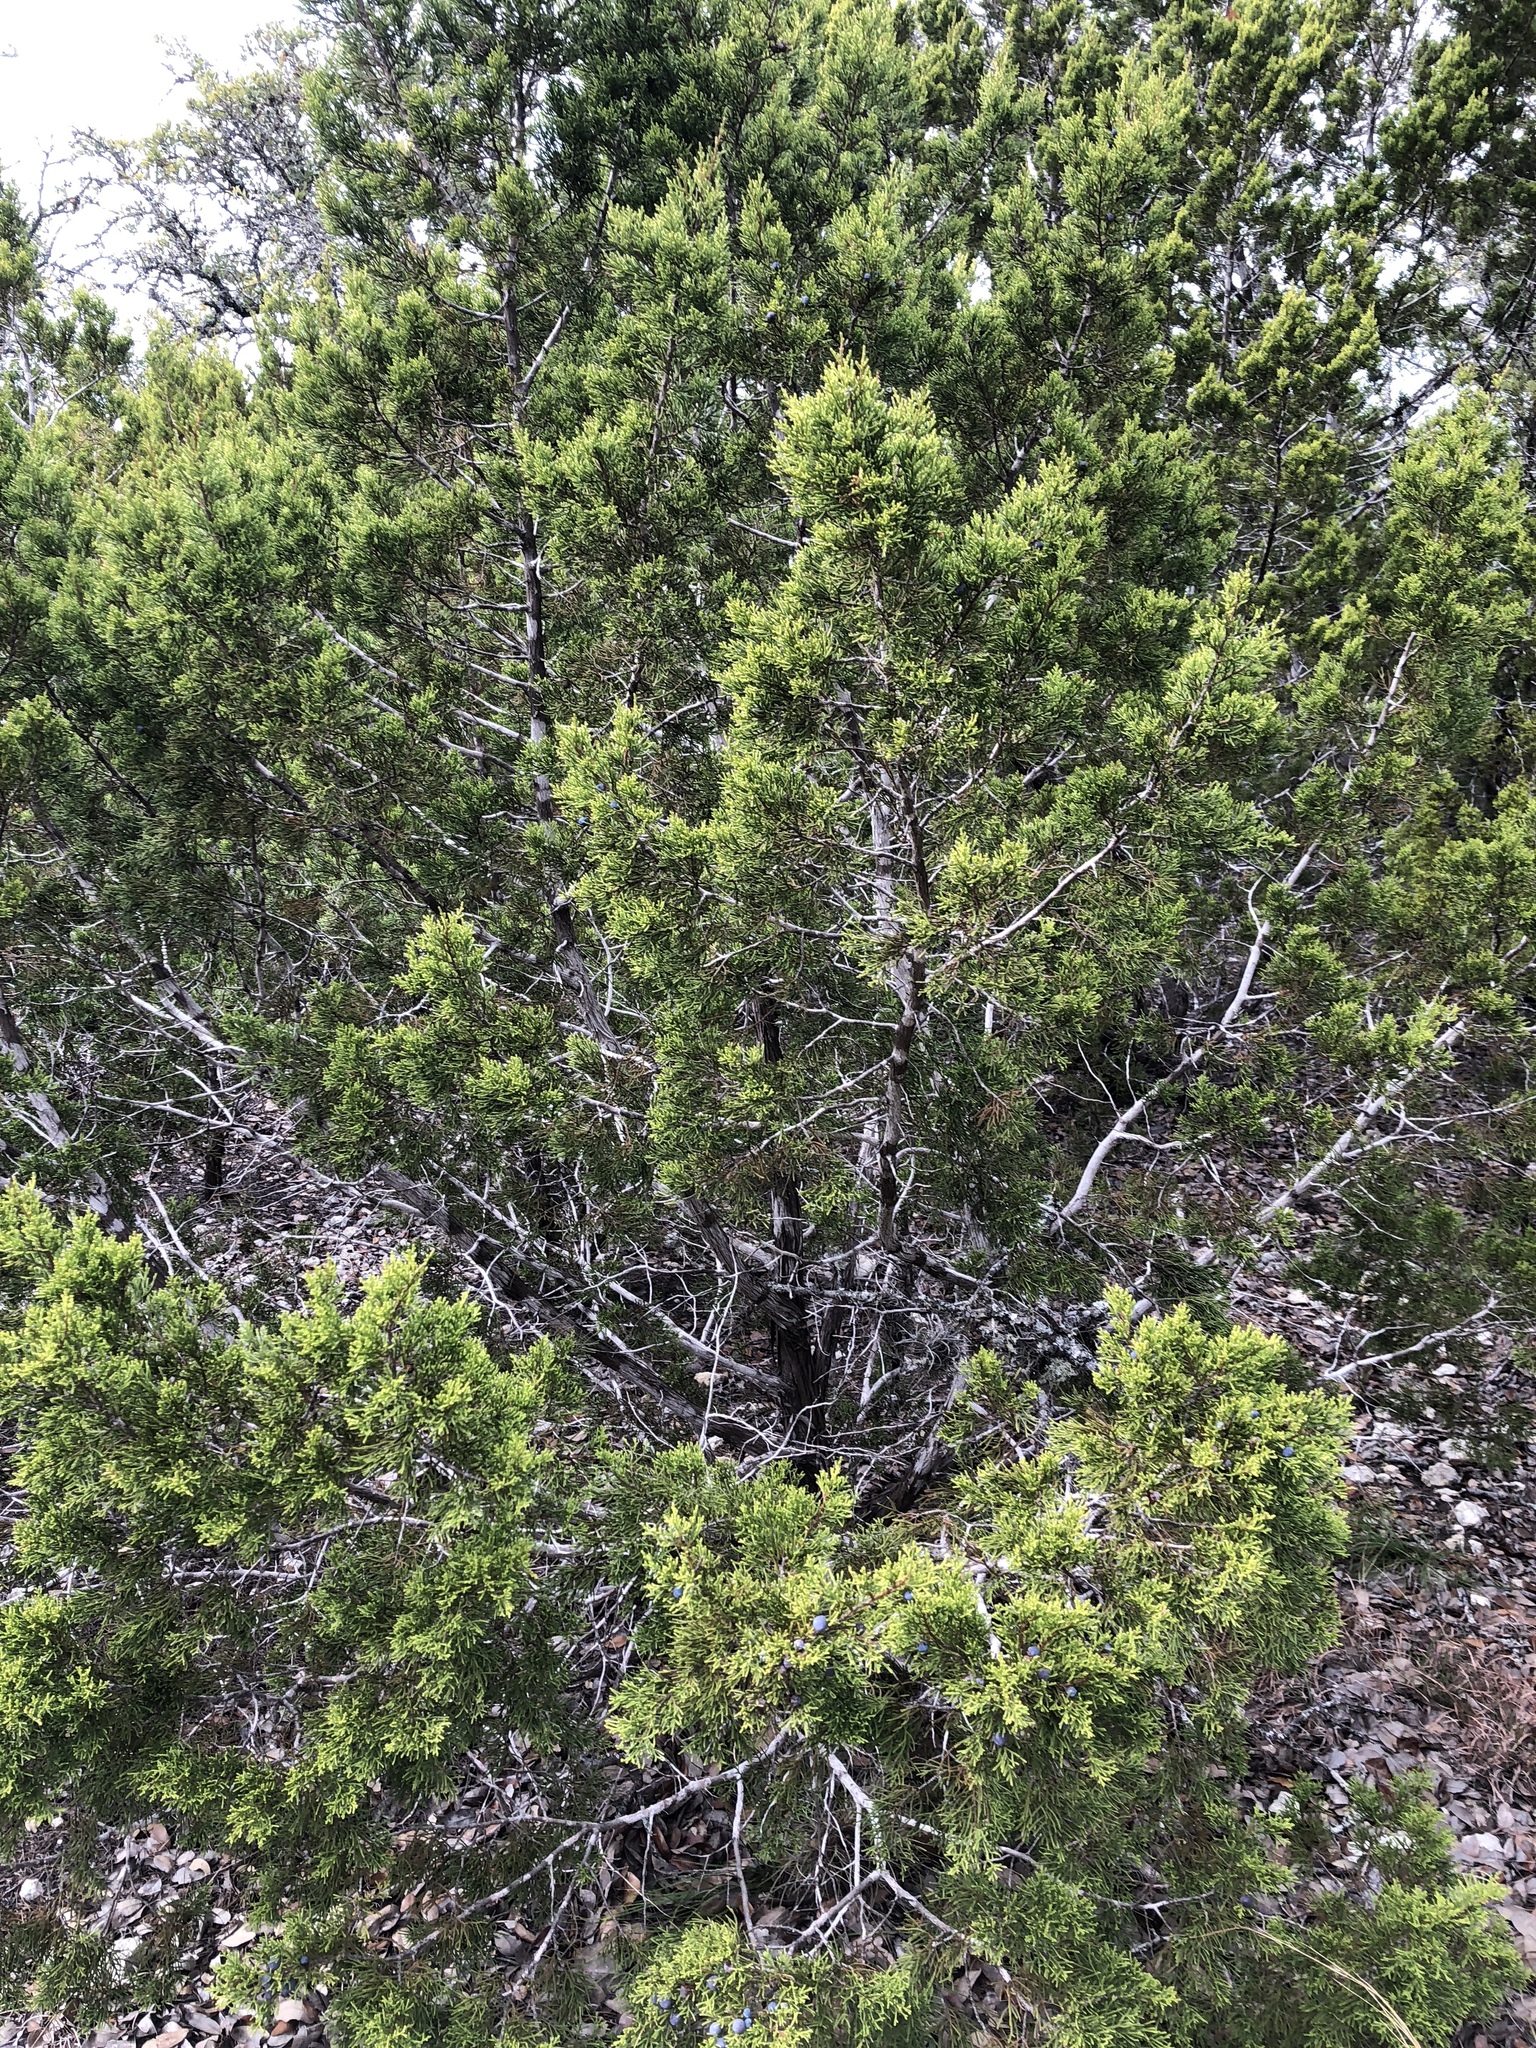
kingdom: Plantae
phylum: Tracheophyta
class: Pinopsida
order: Pinales
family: Cupressaceae
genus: Juniperus
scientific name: Juniperus ashei
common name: Mexican juniper
